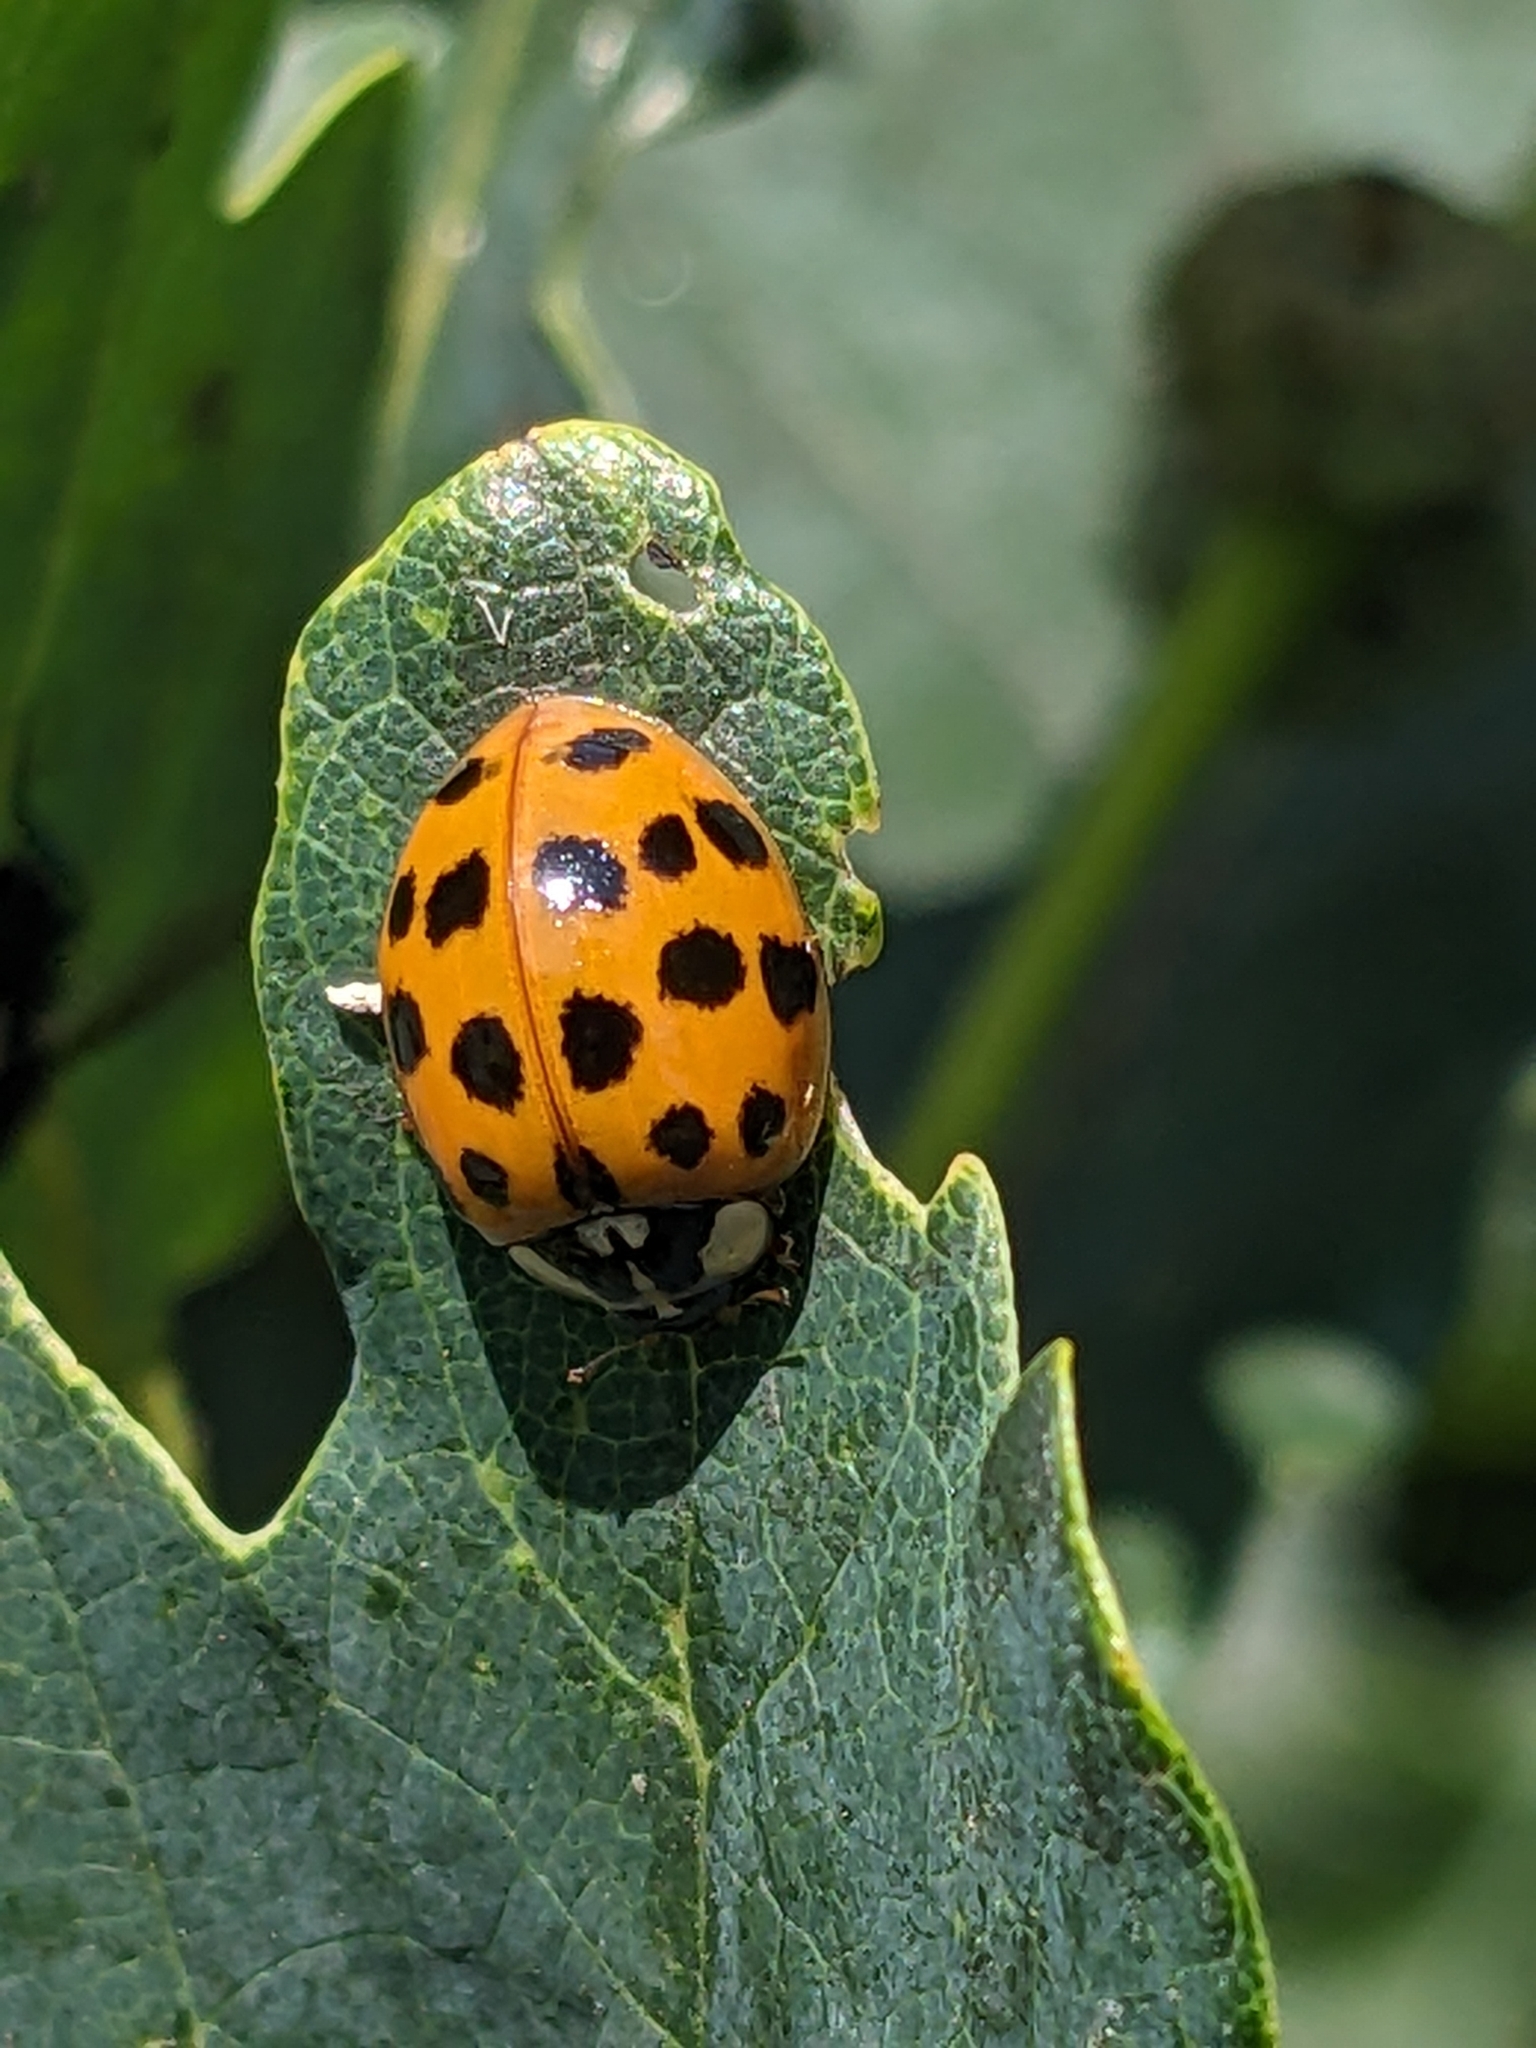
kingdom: Animalia
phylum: Arthropoda
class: Insecta
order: Coleoptera
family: Coccinellidae
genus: Harmonia
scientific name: Harmonia axyridis
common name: Harlequin ladybird
